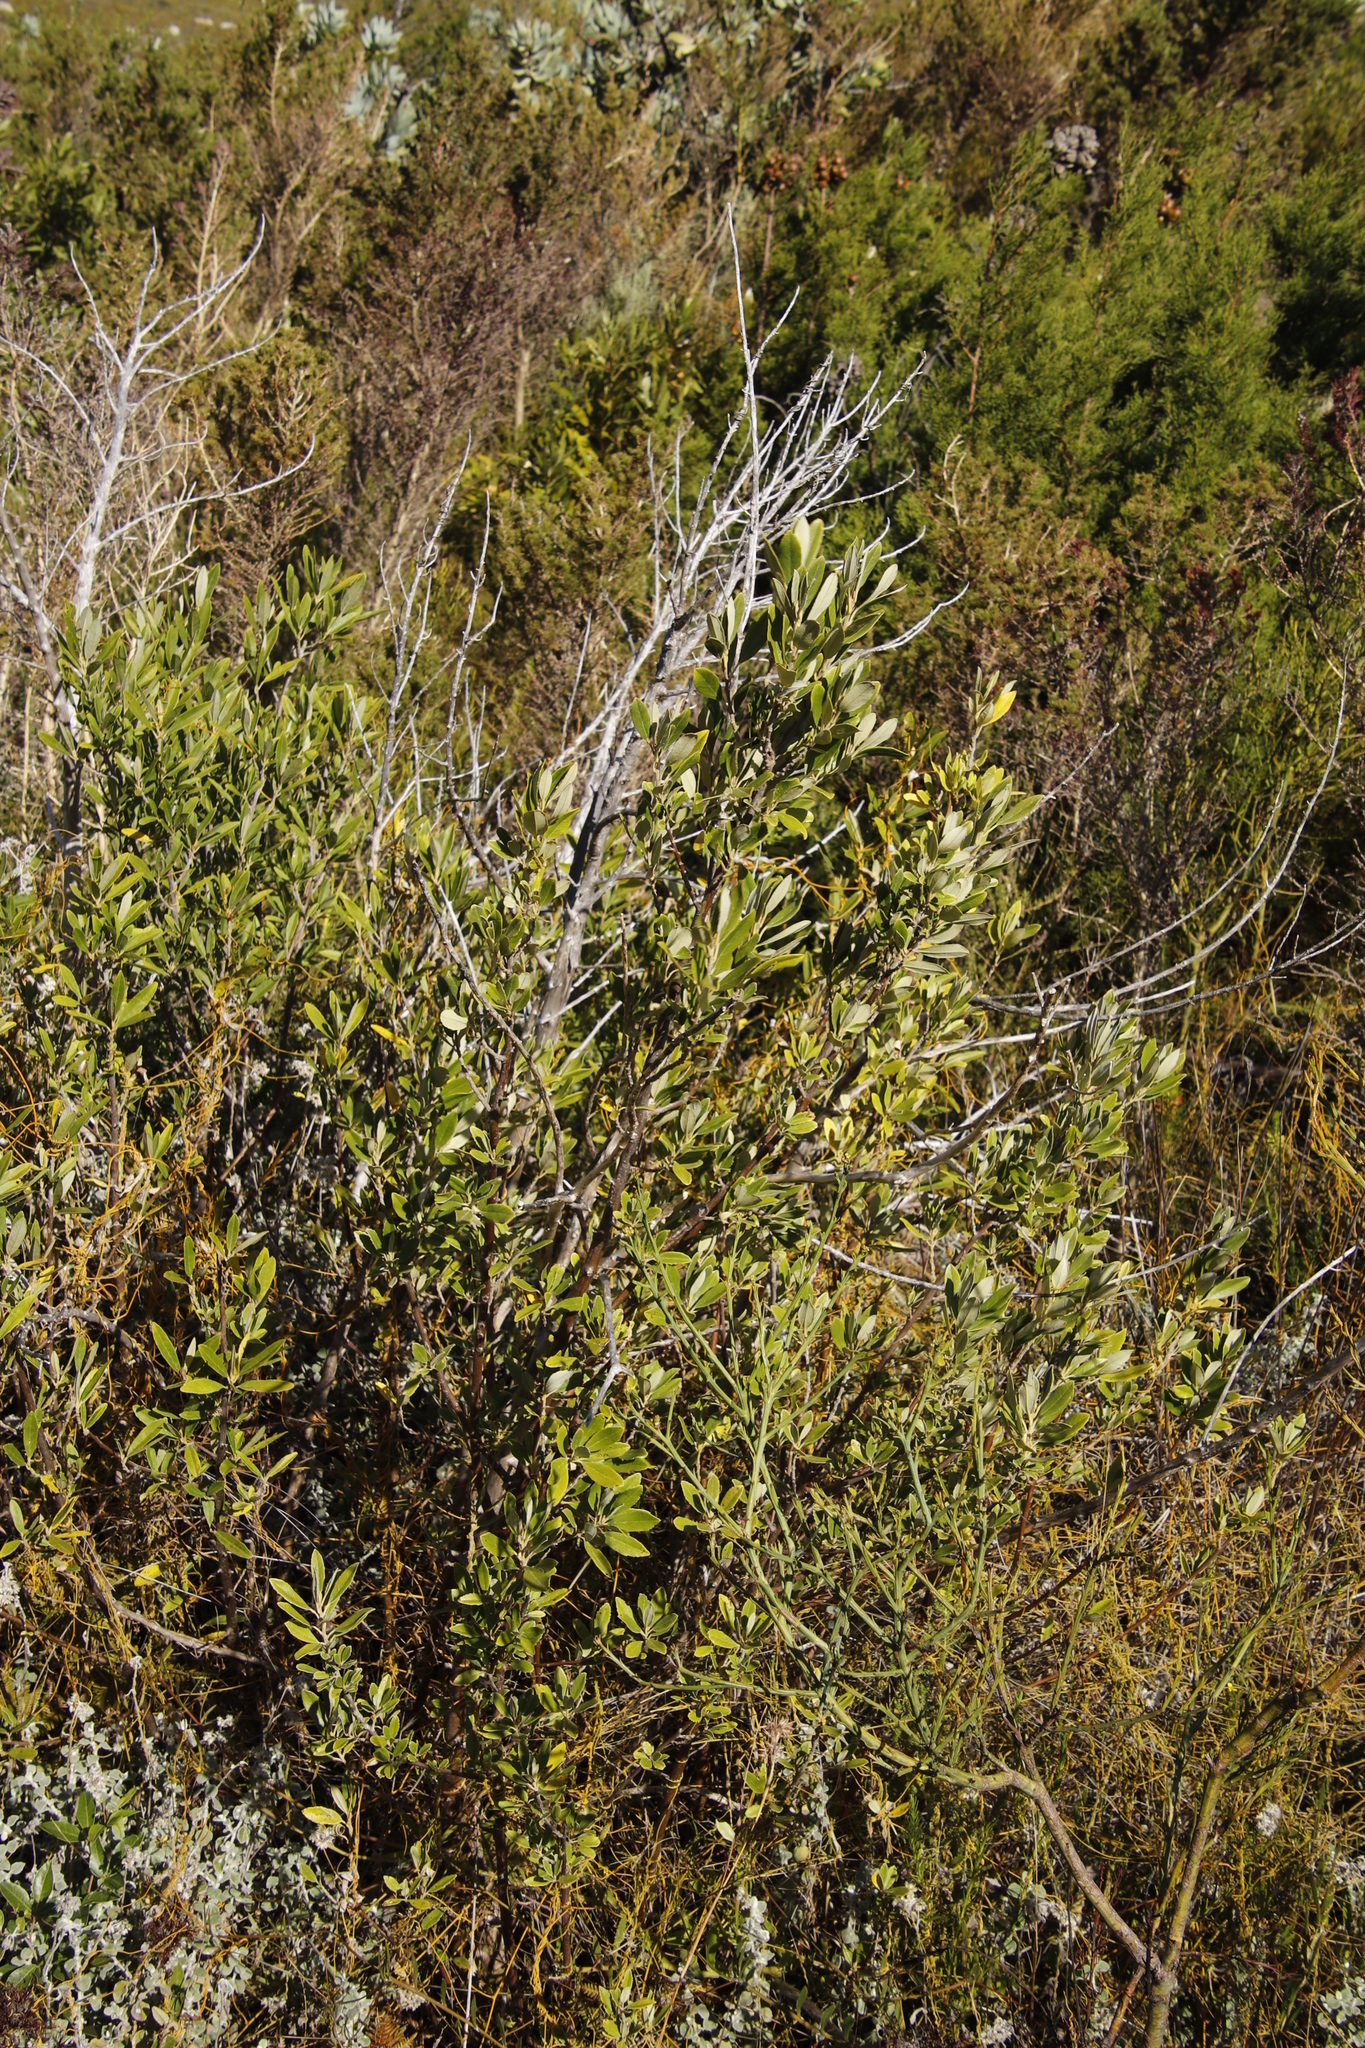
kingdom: Plantae
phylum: Tracheophyta
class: Magnoliopsida
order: Malpighiales
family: Achariaceae
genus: Kiggelaria
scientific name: Kiggelaria africana
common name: Wild peach
